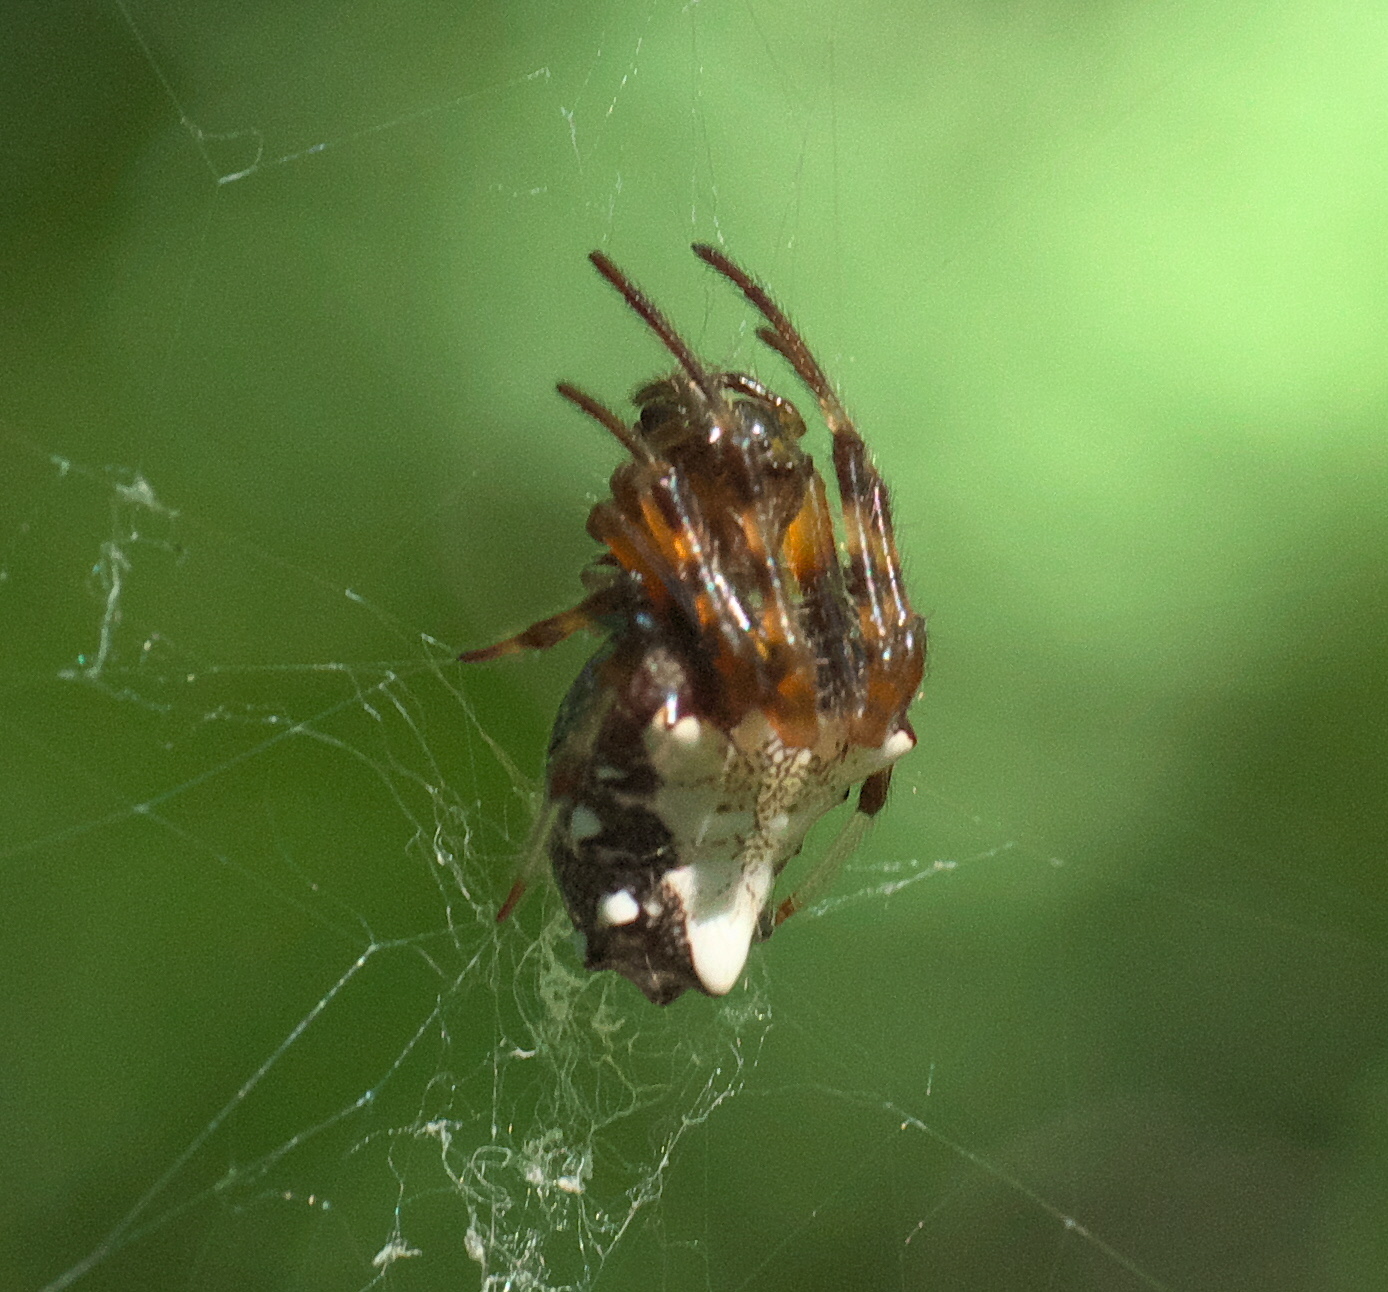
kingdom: Animalia
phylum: Arthropoda
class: Arachnida
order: Araneae
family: Araneidae
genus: Verrucosa
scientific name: Verrucosa arenata
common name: Orb weavers
